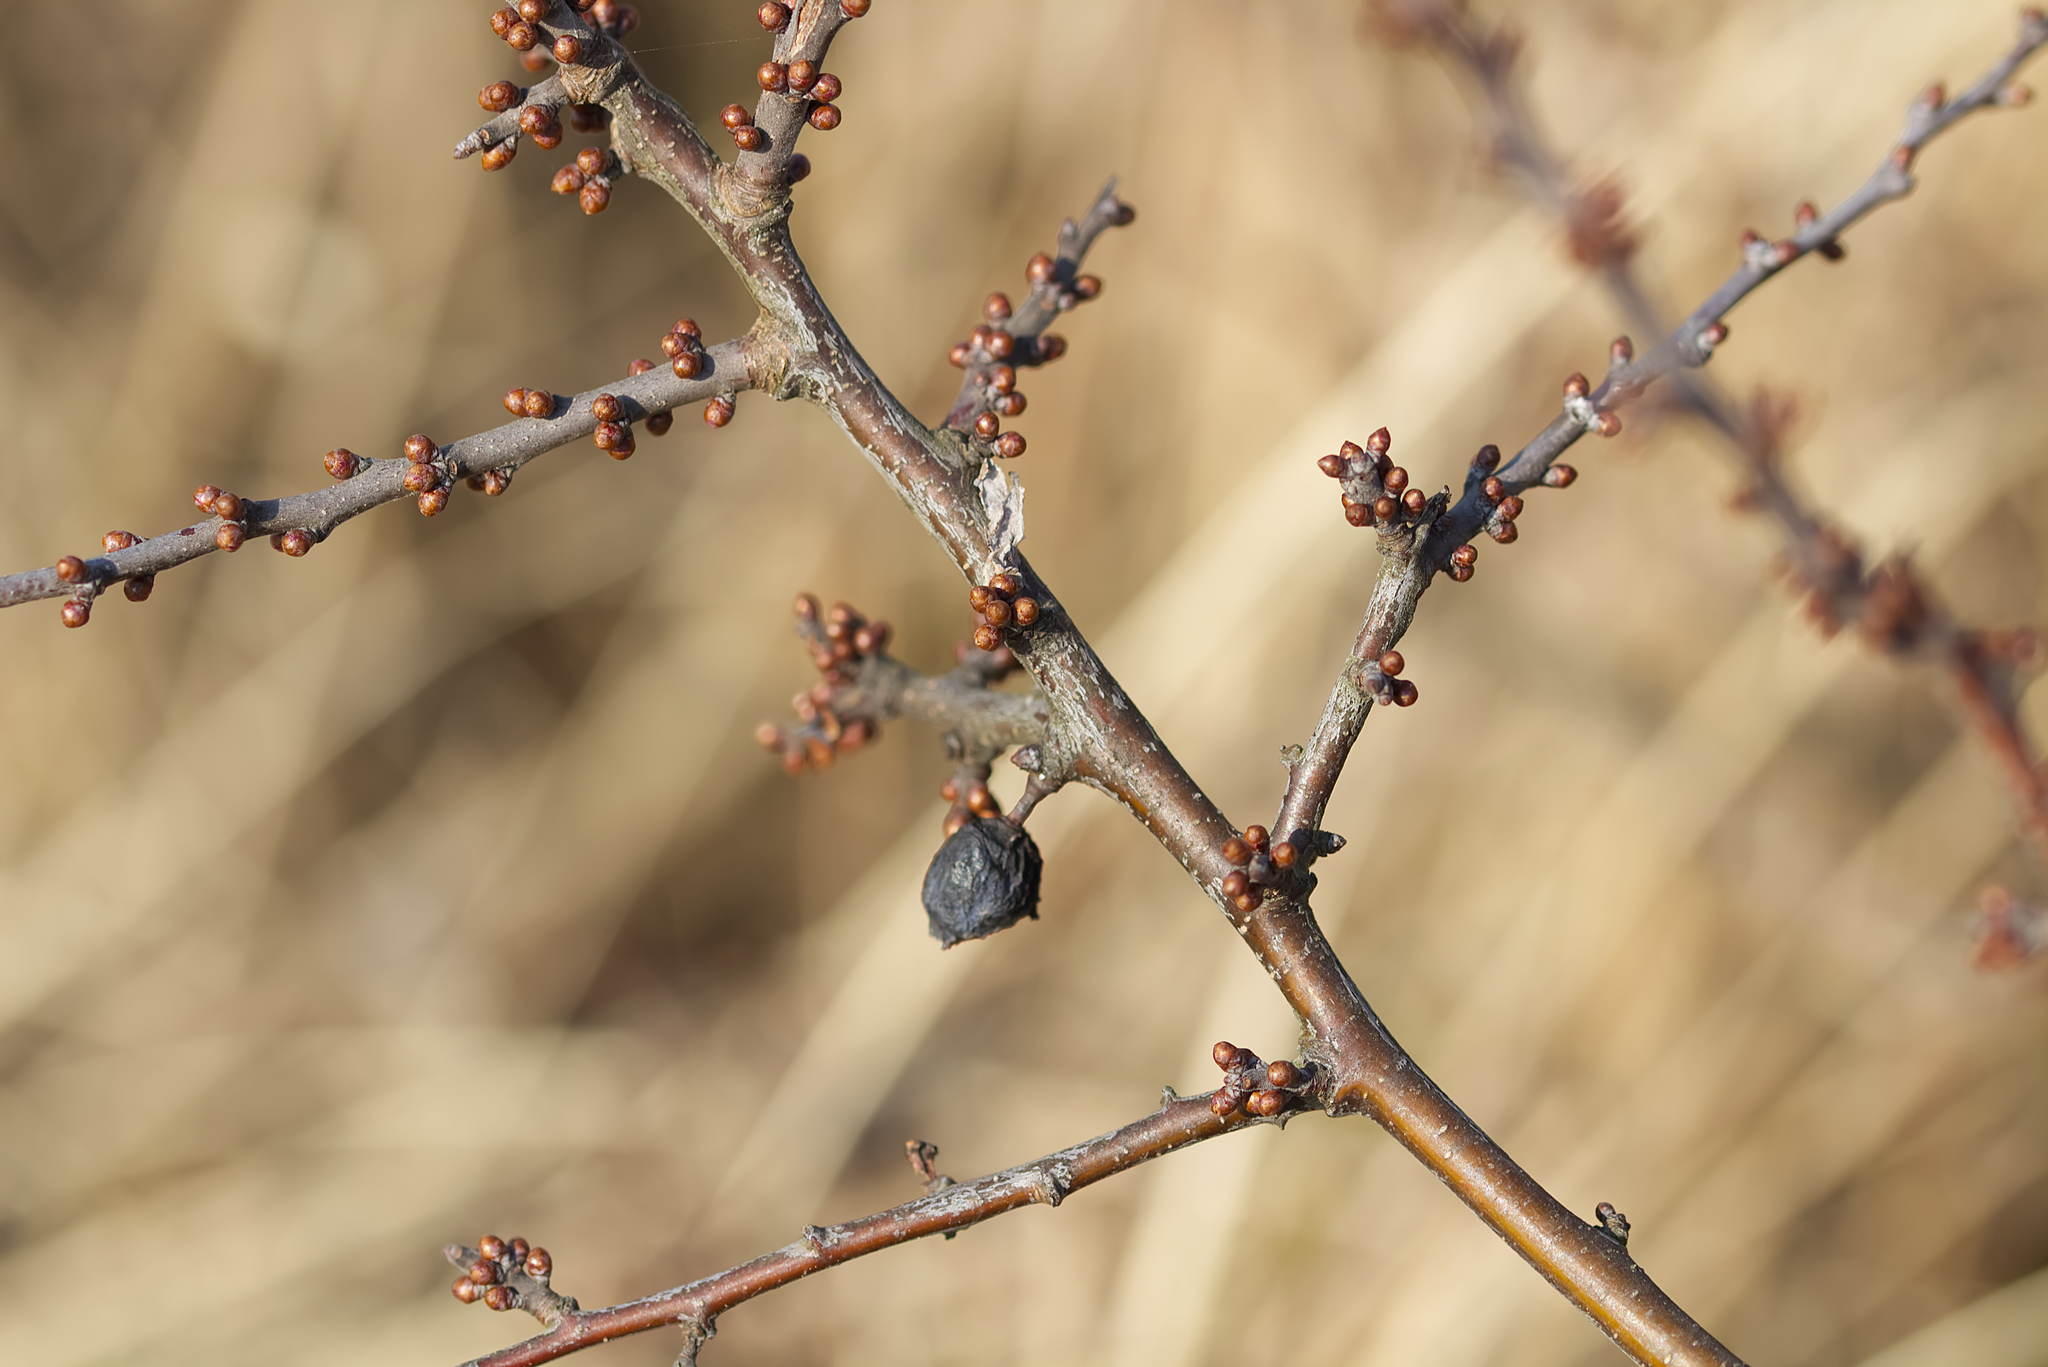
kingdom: Plantae
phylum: Tracheophyta
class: Magnoliopsida
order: Rosales
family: Rosaceae
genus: Prunus
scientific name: Prunus spinosa
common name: Blackthorn
